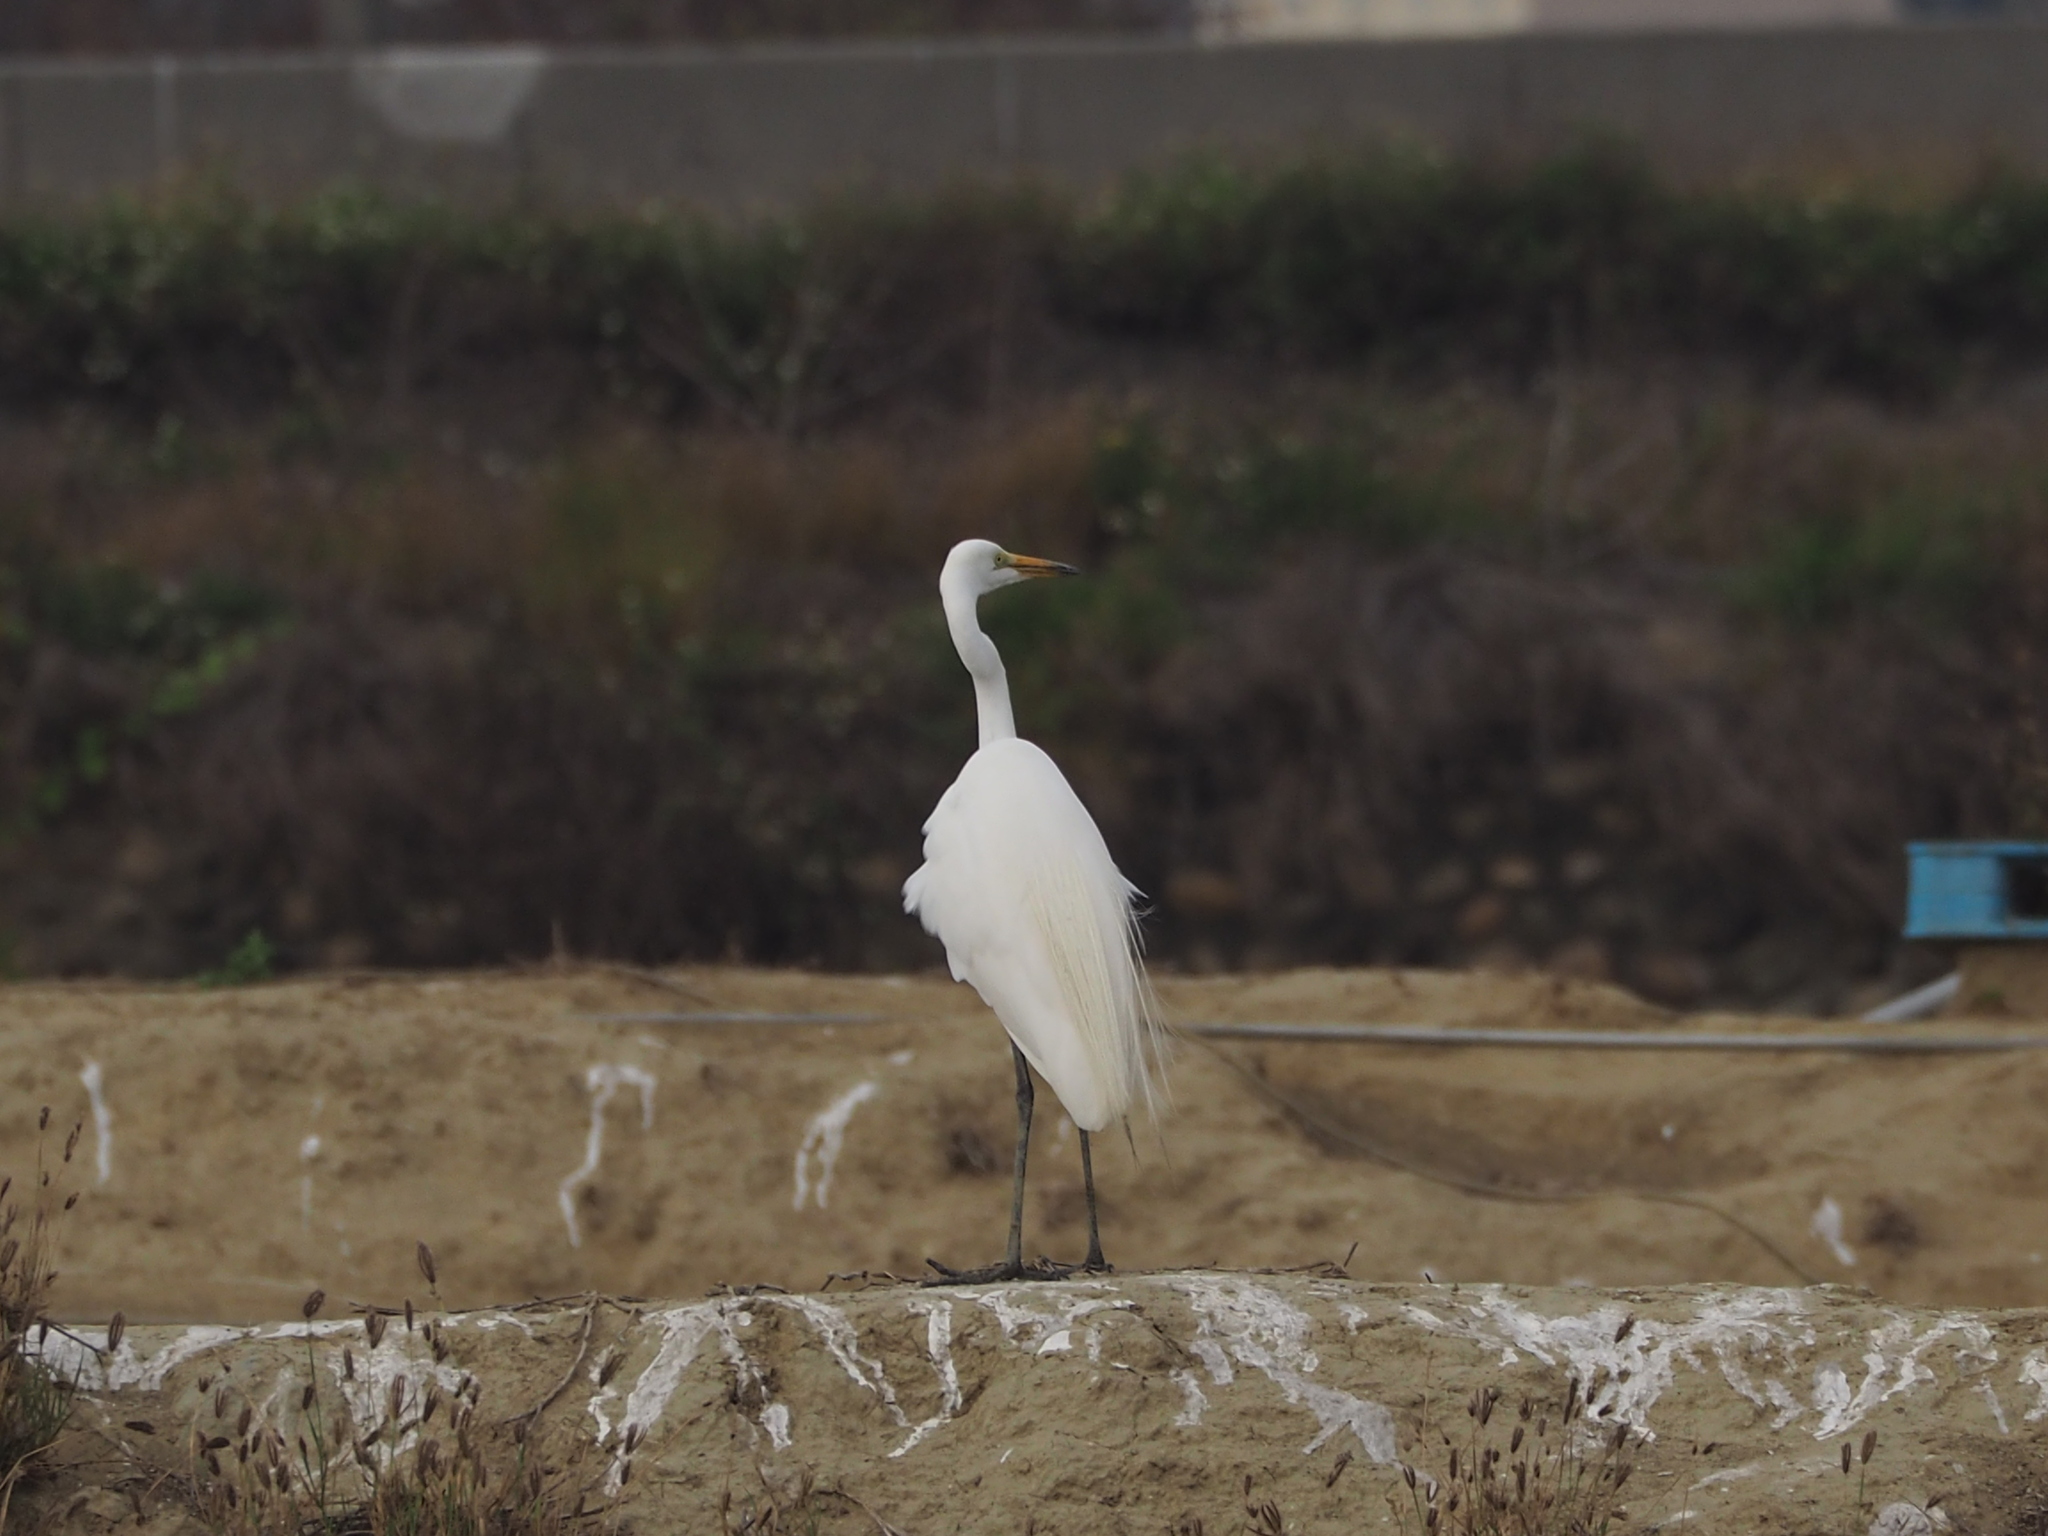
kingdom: Animalia
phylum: Chordata
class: Aves
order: Pelecaniformes
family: Ardeidae
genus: Ardea
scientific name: Ardea alba
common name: Great egret
